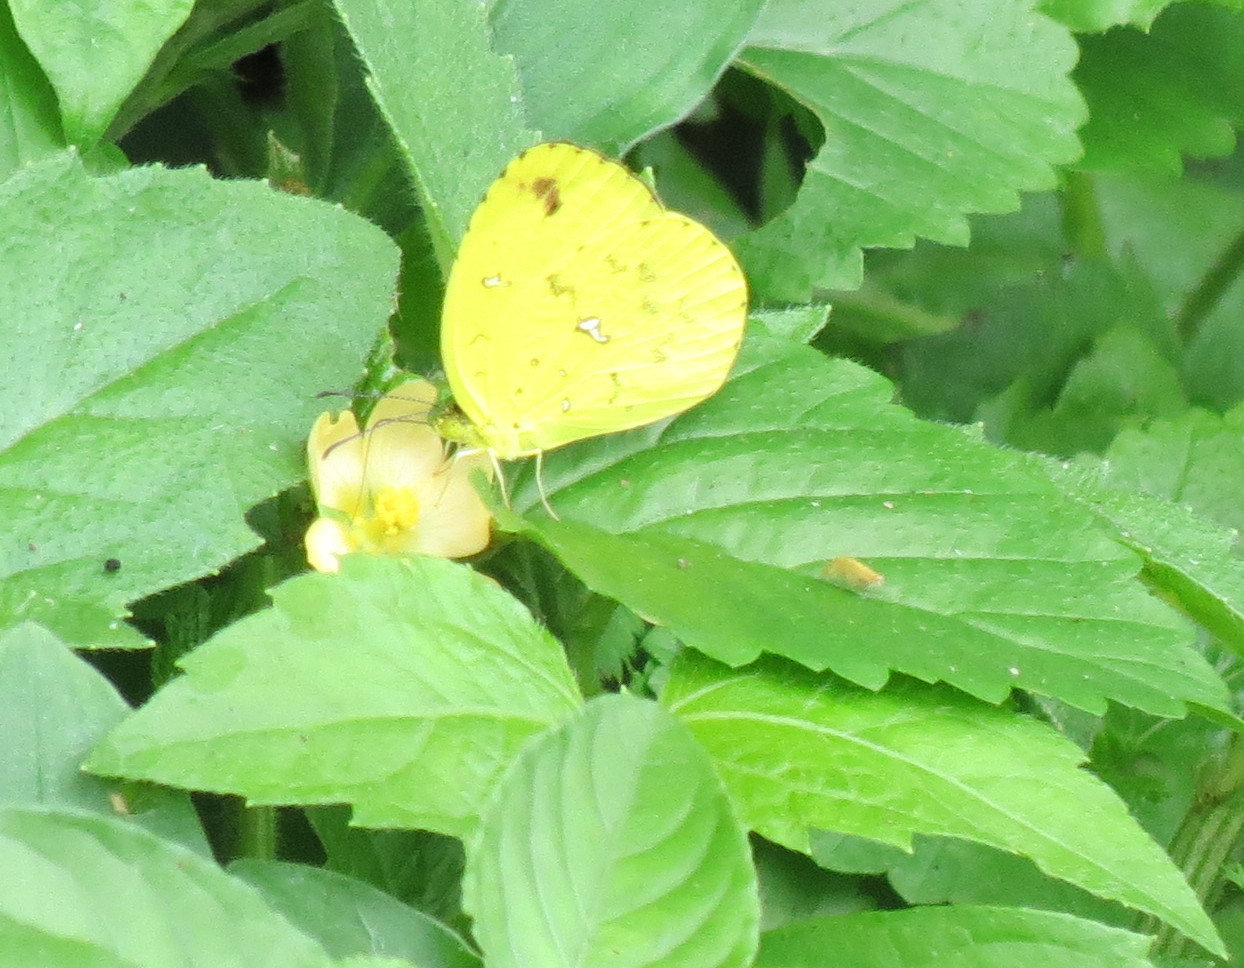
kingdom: Animalia
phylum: Arthropoda
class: Insecta
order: Lepidoptera
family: Pieridae
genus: Eurema
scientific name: Eurema floricola
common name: Malagasy grass yellow
